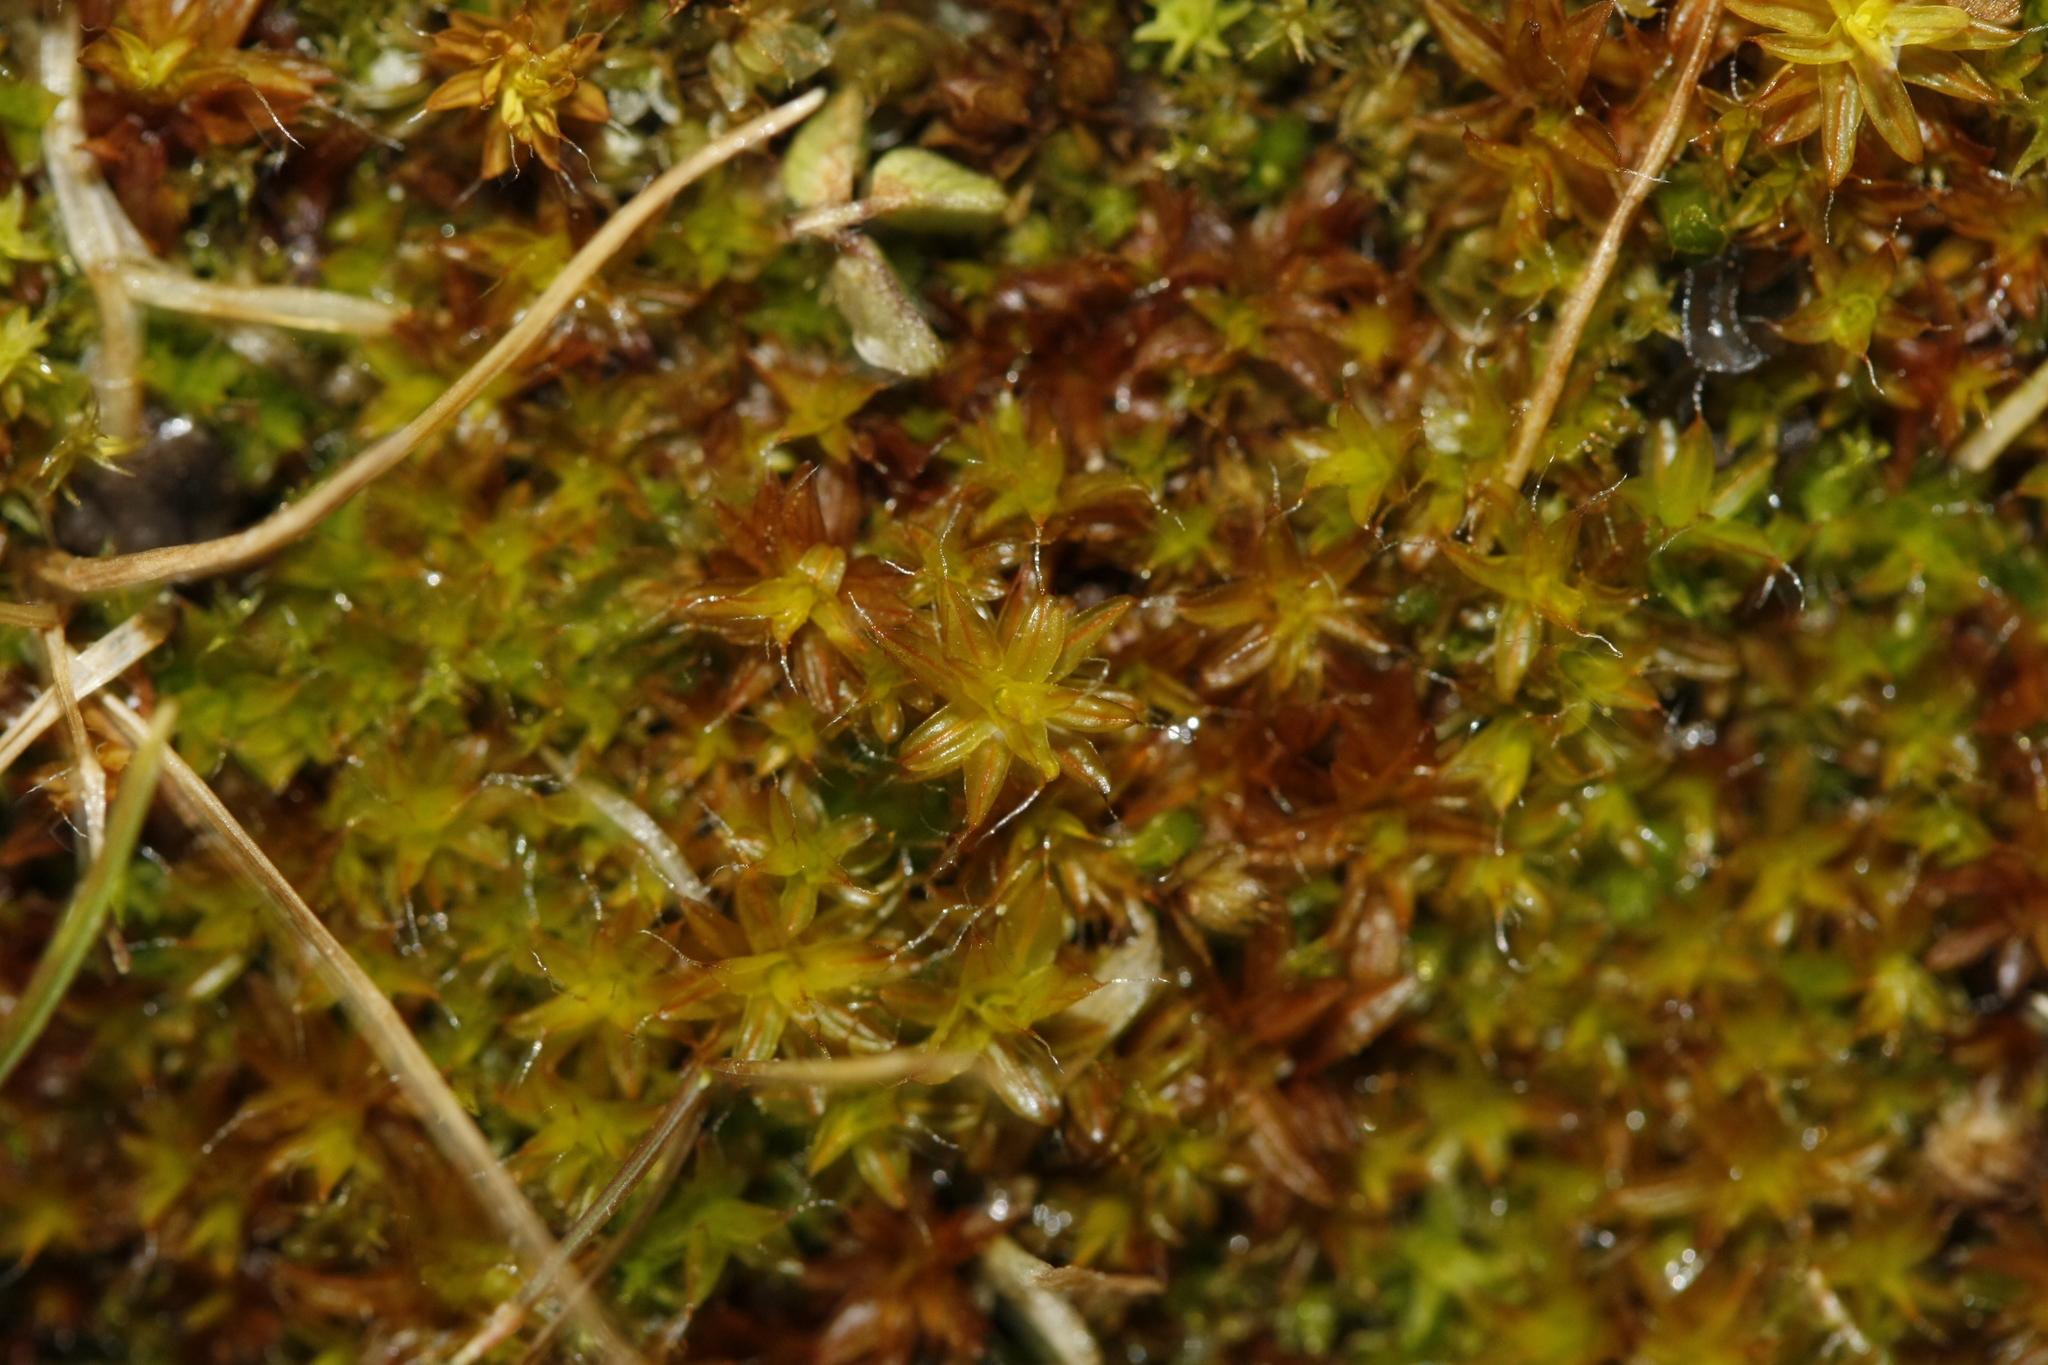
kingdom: Plantae
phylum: Bryophyta
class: Bryopsida
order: Pottiales
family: Pottiaceae
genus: Syntrichia
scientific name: Syntrichia ruralis
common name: Sidewalk screw moss
